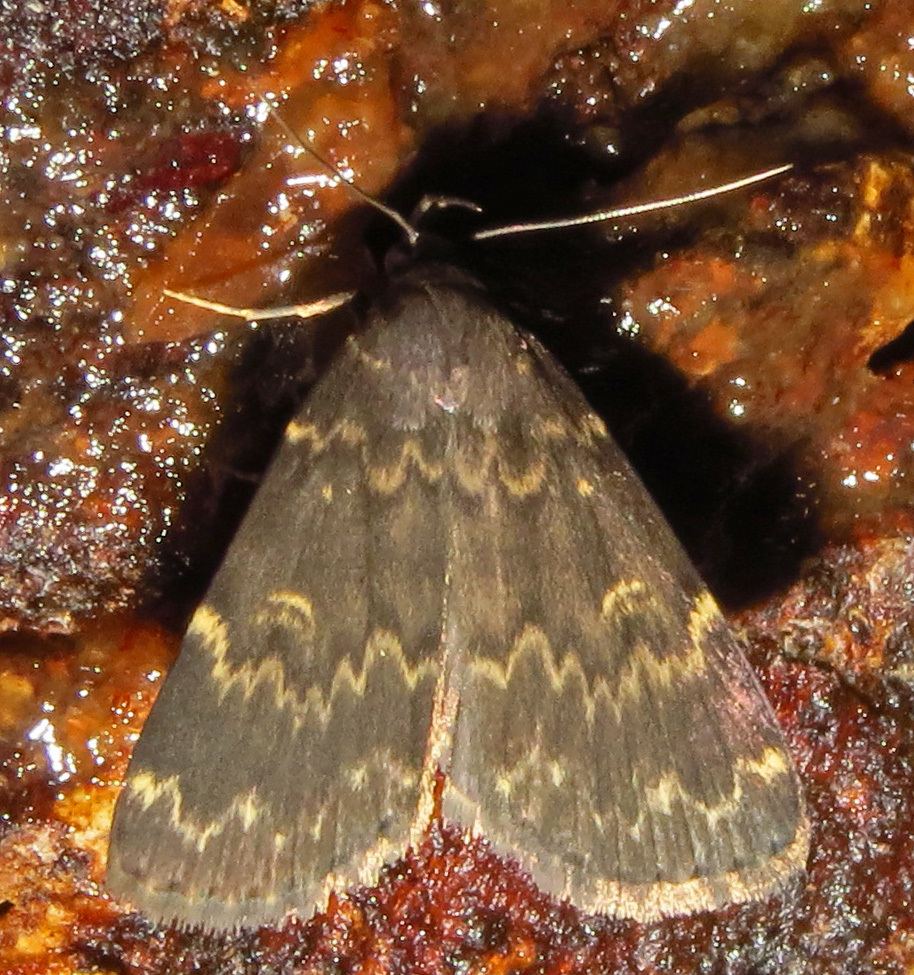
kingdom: Animalia
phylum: Arthropoda
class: Insecta
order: Lepidoptera
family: Erebidae
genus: Idia
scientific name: Idia lubricalis
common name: Twin-striped tabby
